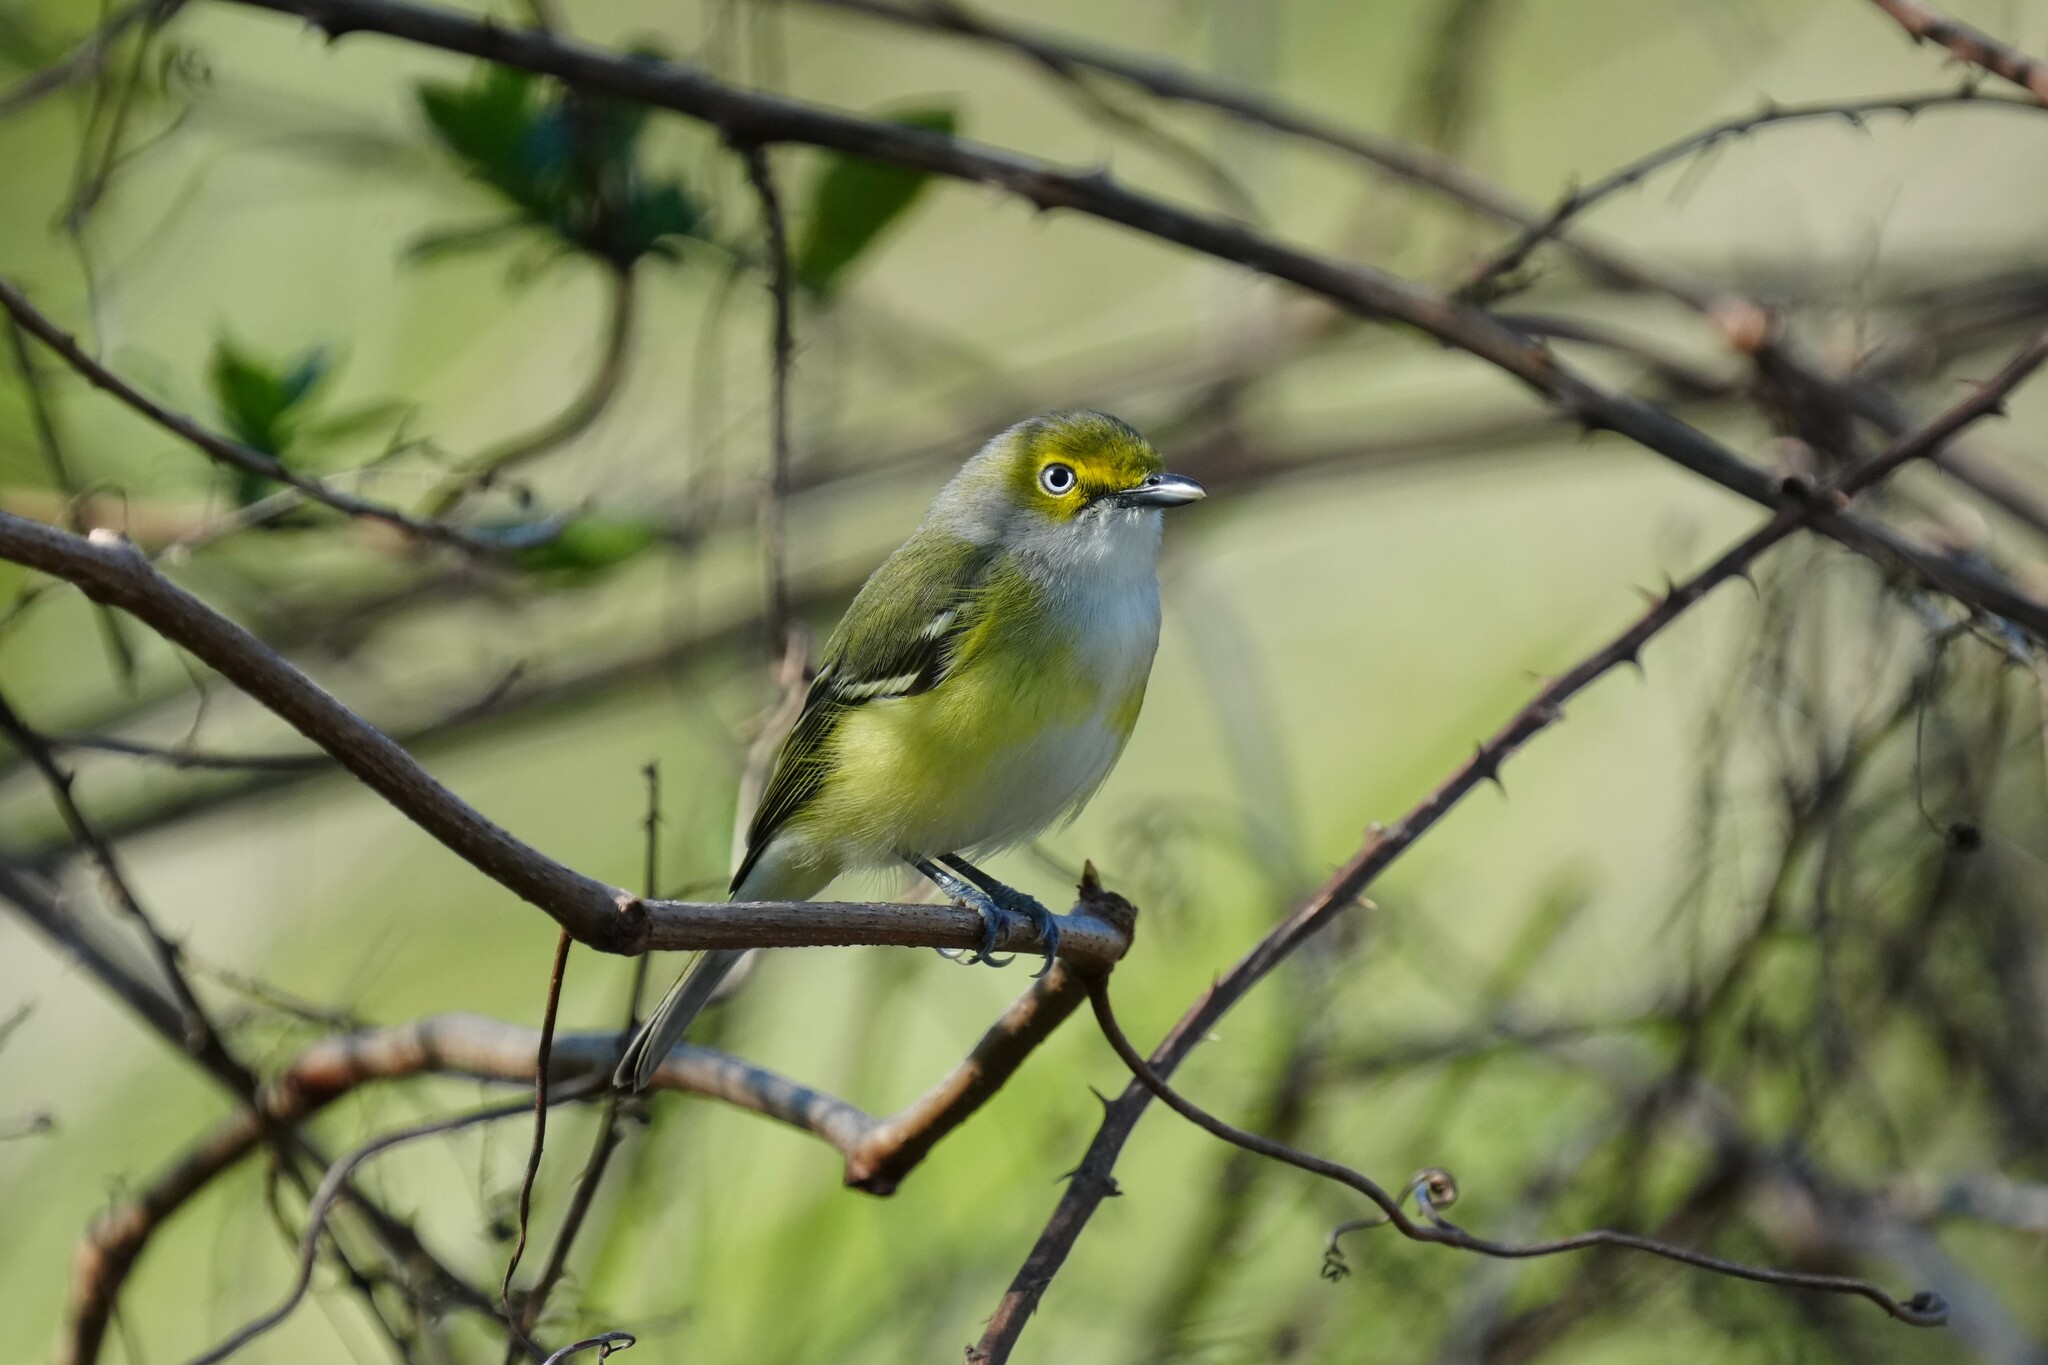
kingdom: Animalia
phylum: Chordata
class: Aves
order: Passeriformes
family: Vireonidae
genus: Vireo
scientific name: Vireo griseus
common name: White-eyed vireo
